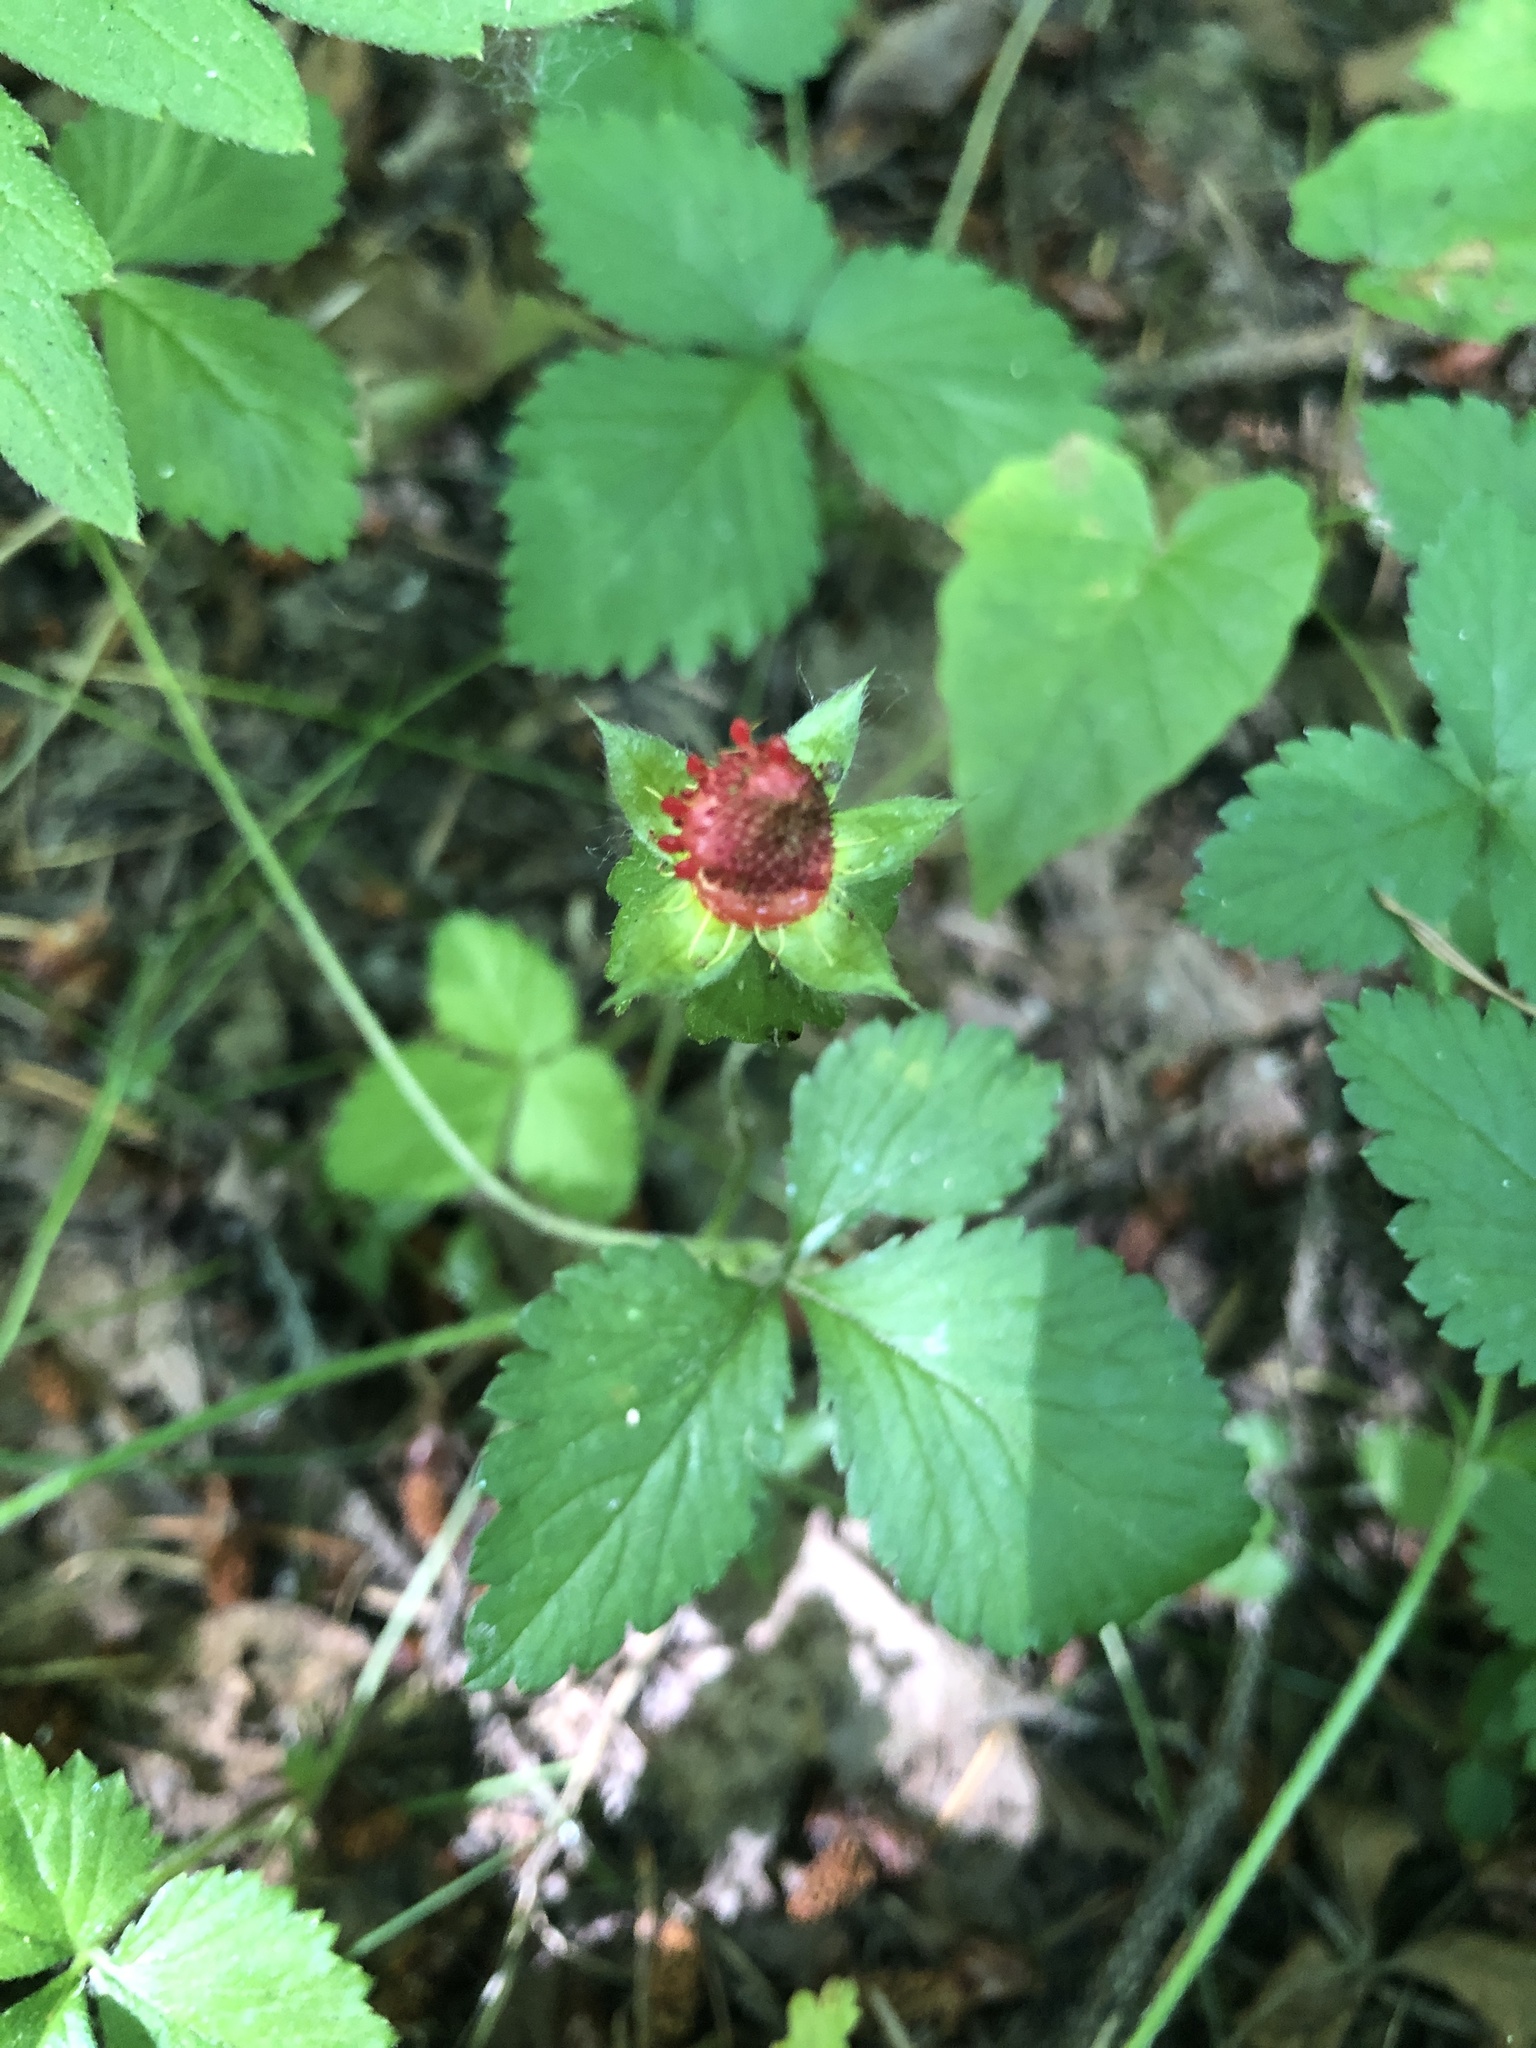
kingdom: Plantae
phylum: Tracheophyta
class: Magnoliopsida
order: Rosales
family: Rosaceae
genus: Potentilla
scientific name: Potentilla indica
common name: Yellow-flowered strawberry
